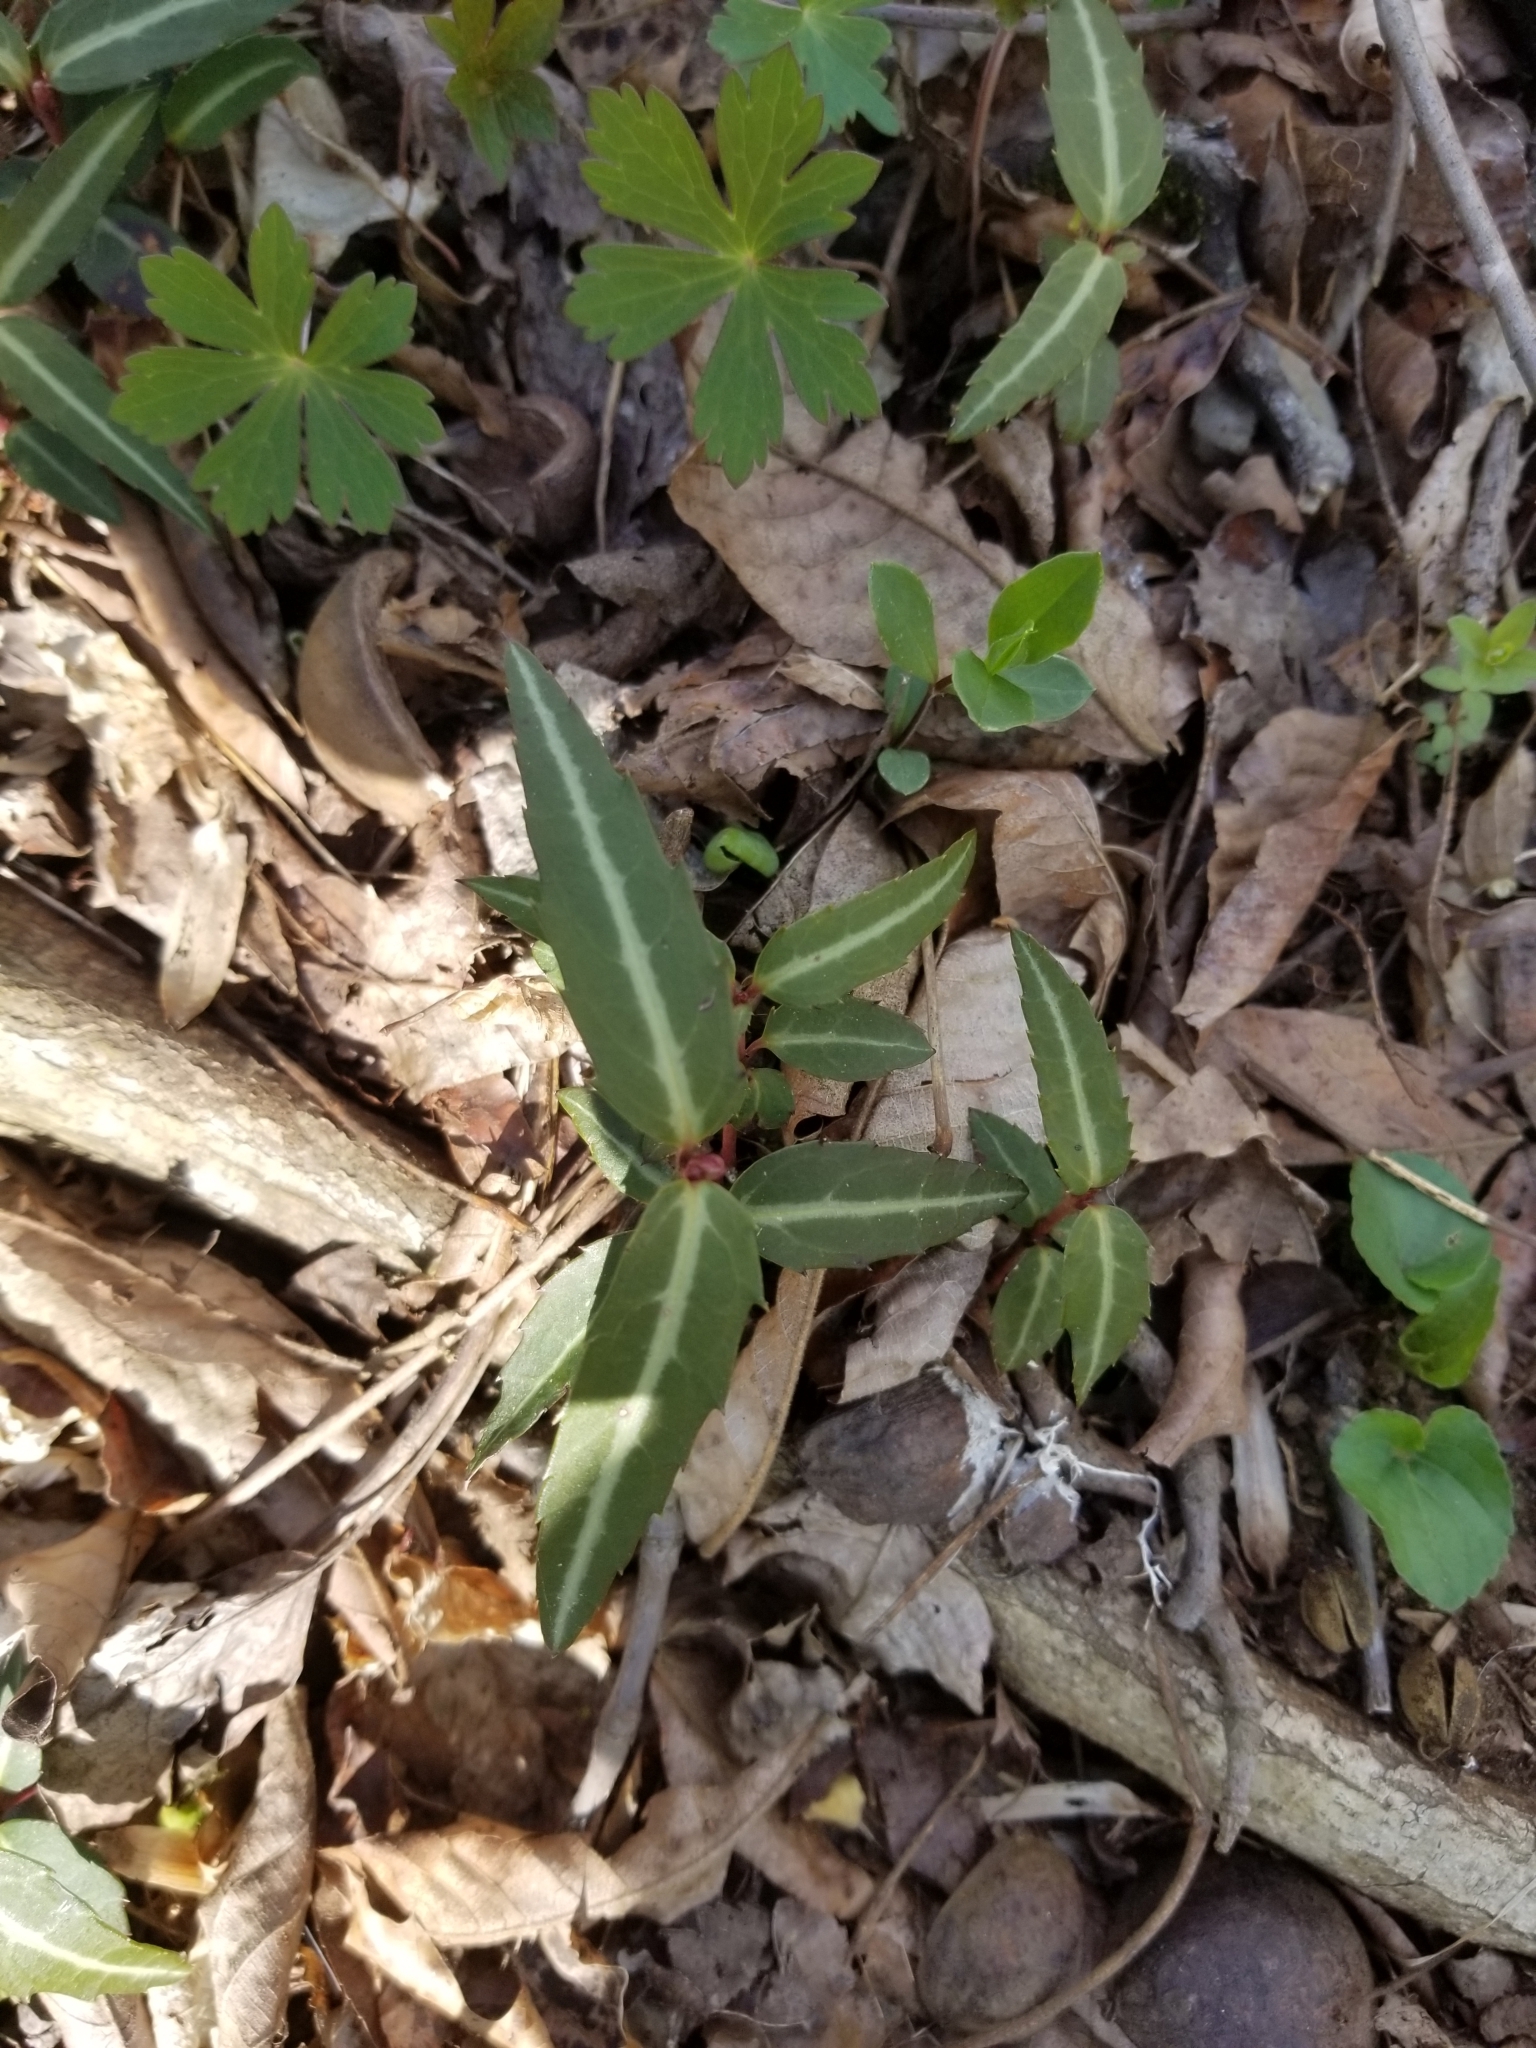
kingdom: Plantae
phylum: Tracheophyta
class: Magnoliopsida
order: Ericales
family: Ericaceae
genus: Chimaphila
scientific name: Chimaphila maculata
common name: Spotted pipsissewa
